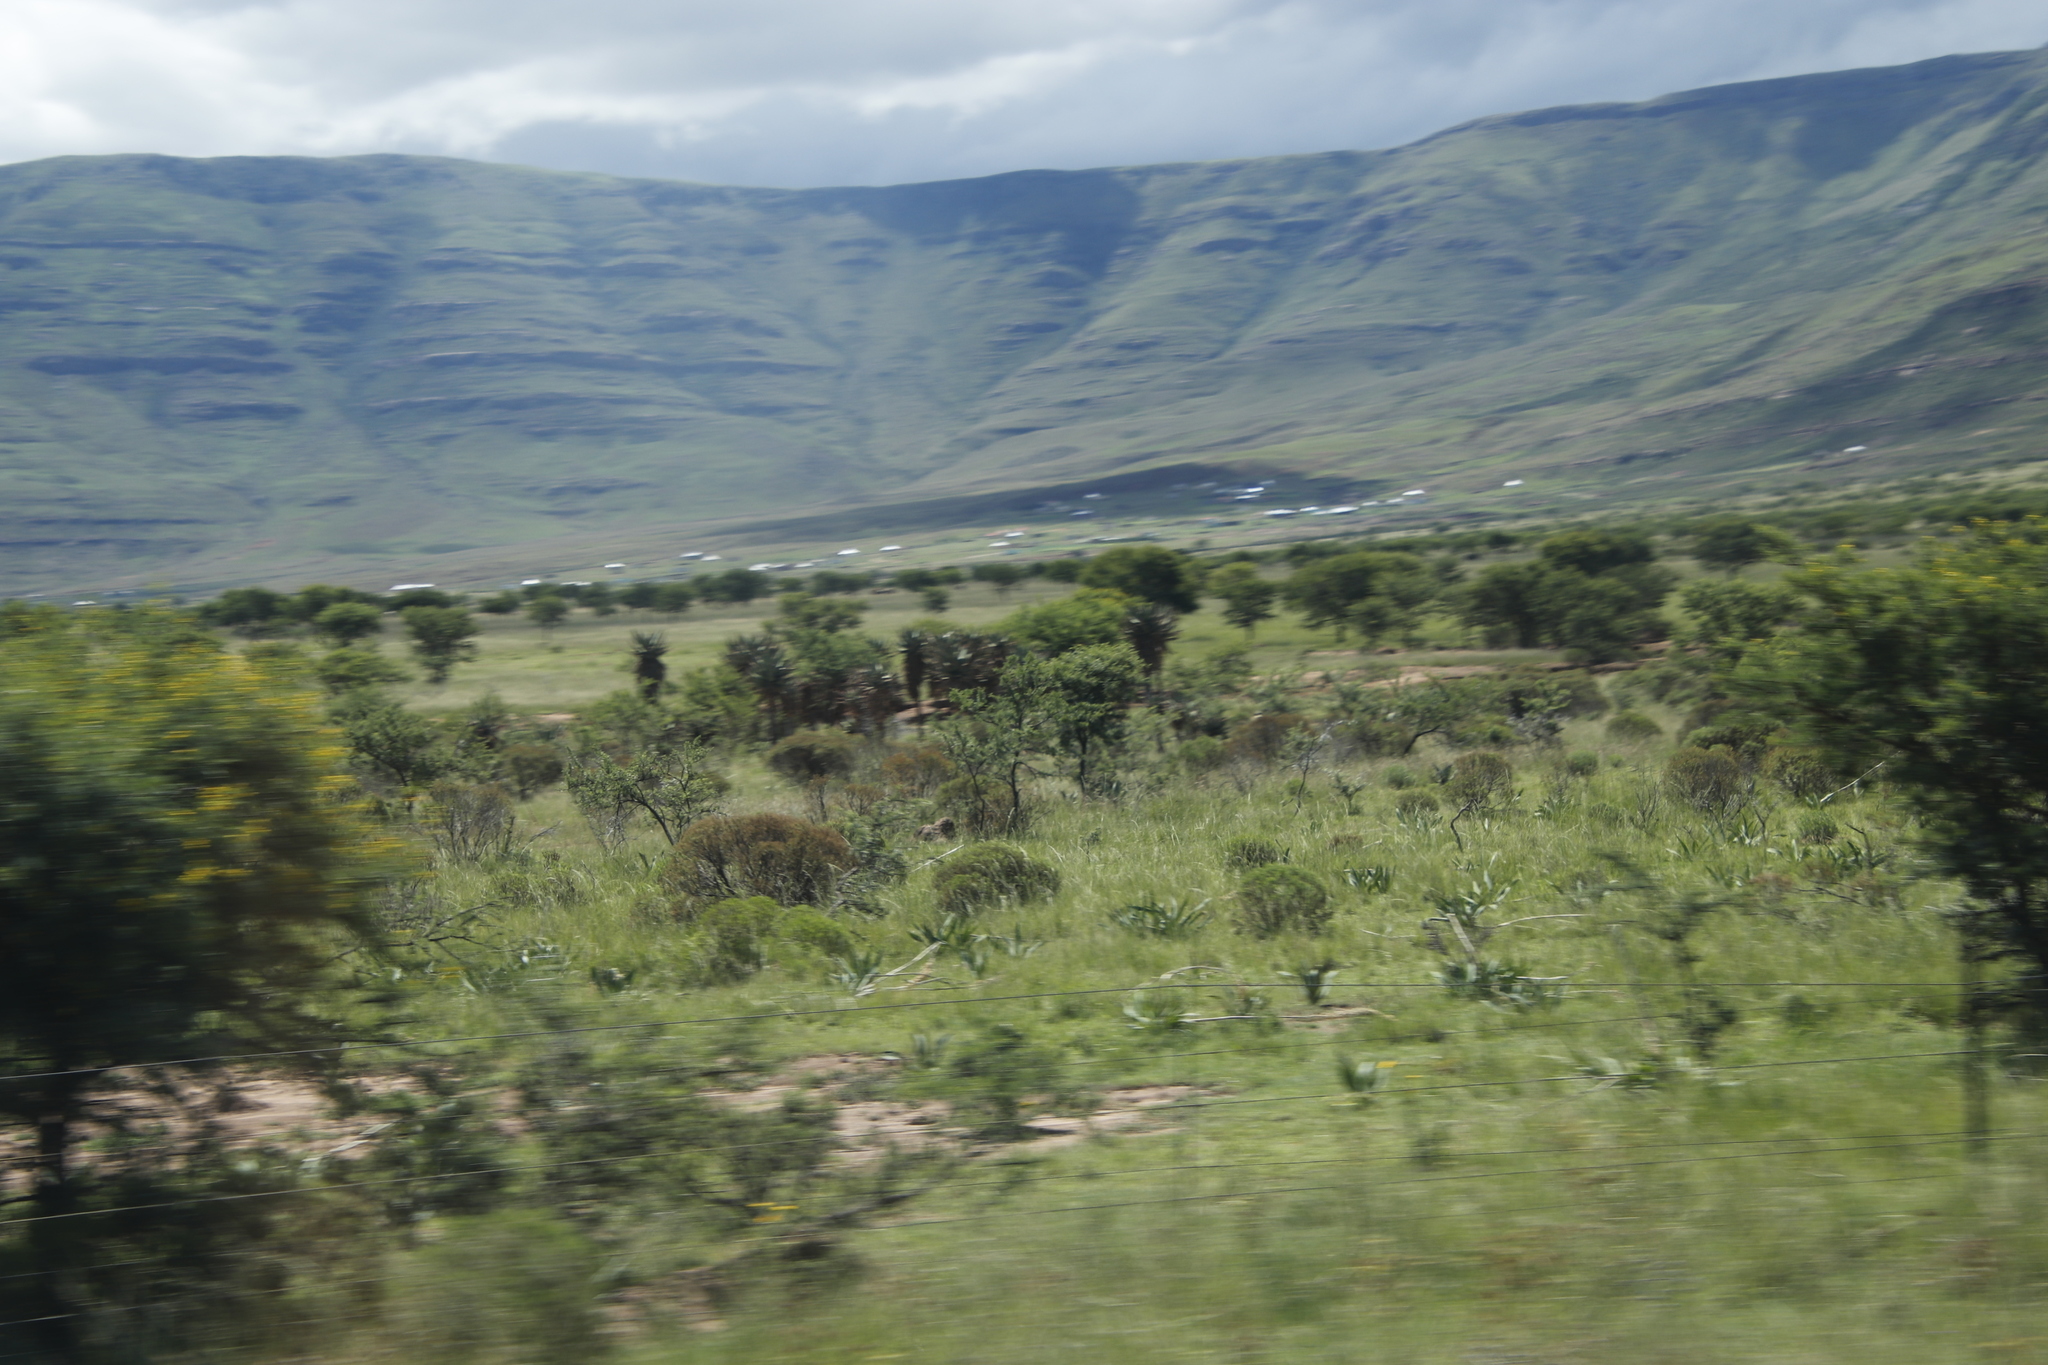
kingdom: Plantae
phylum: Tracheophyta
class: Liliopsida
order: Asparagales
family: Asparagaceae
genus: Drimia
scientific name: Drimia altissima
